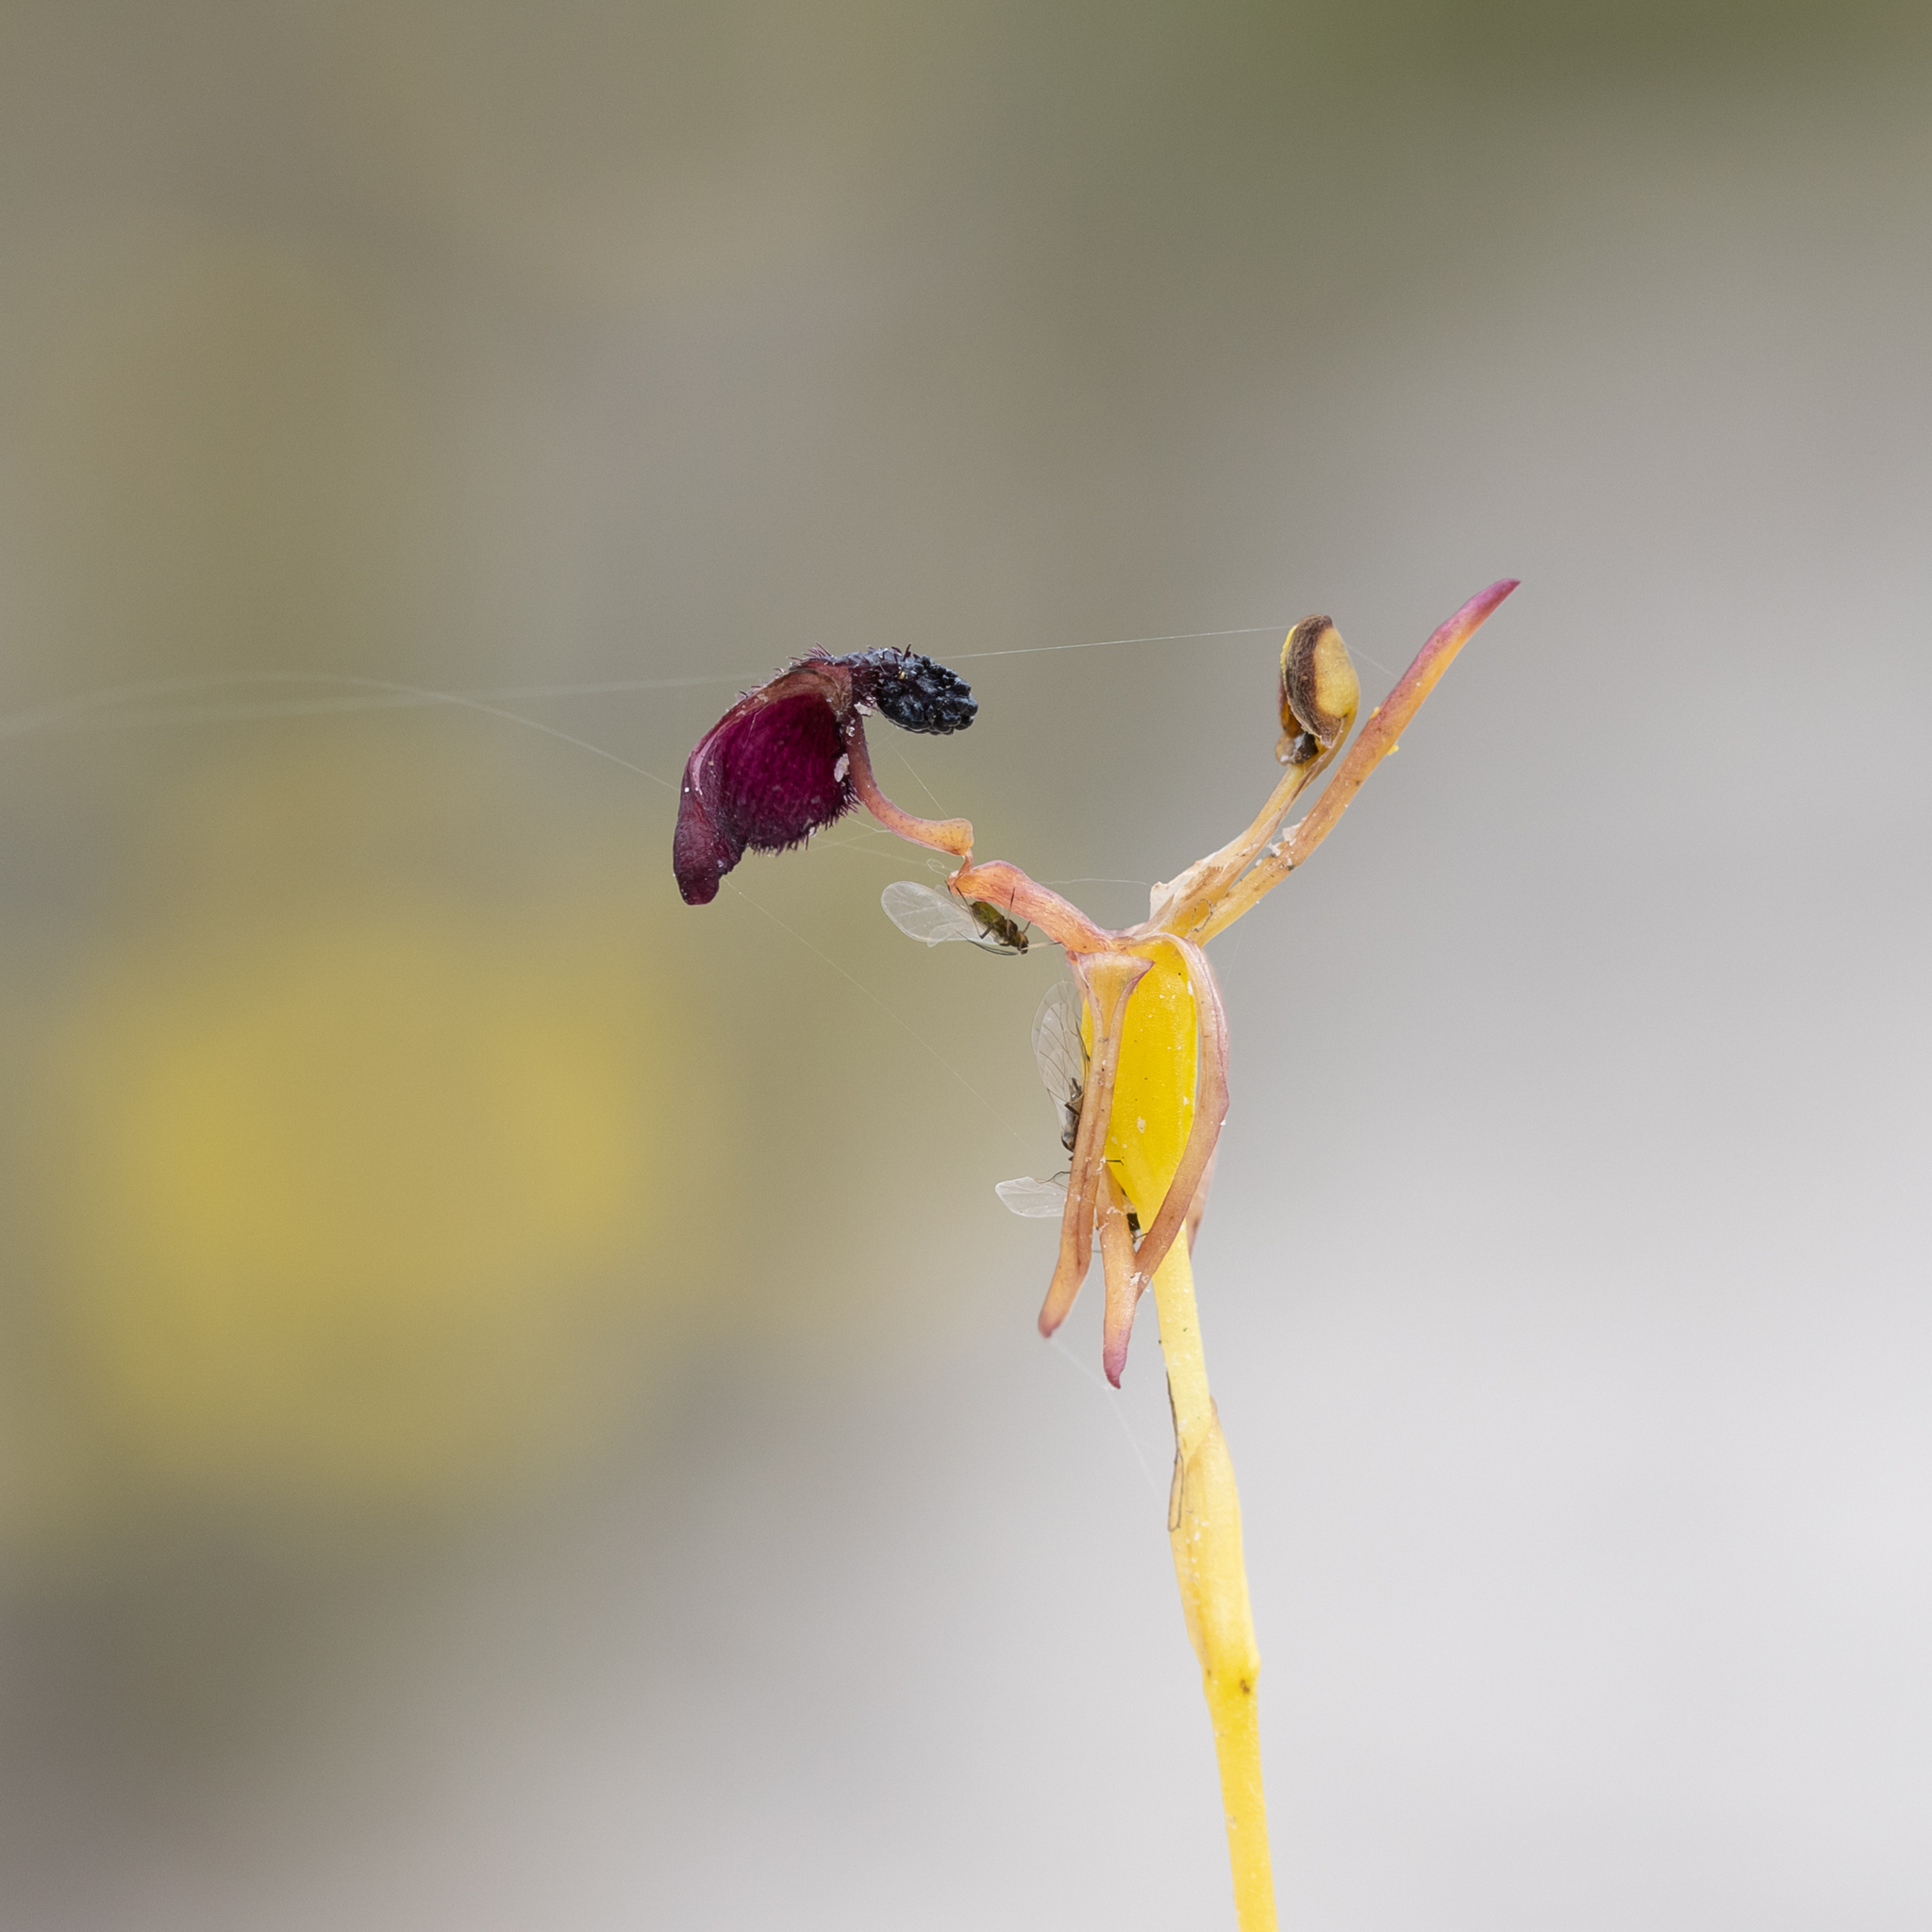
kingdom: Plantae
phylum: Tracheophyta
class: Liliopsida
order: Asparagales
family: Orchidaceae
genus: Drakaea
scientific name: Drakaea glyptodon
